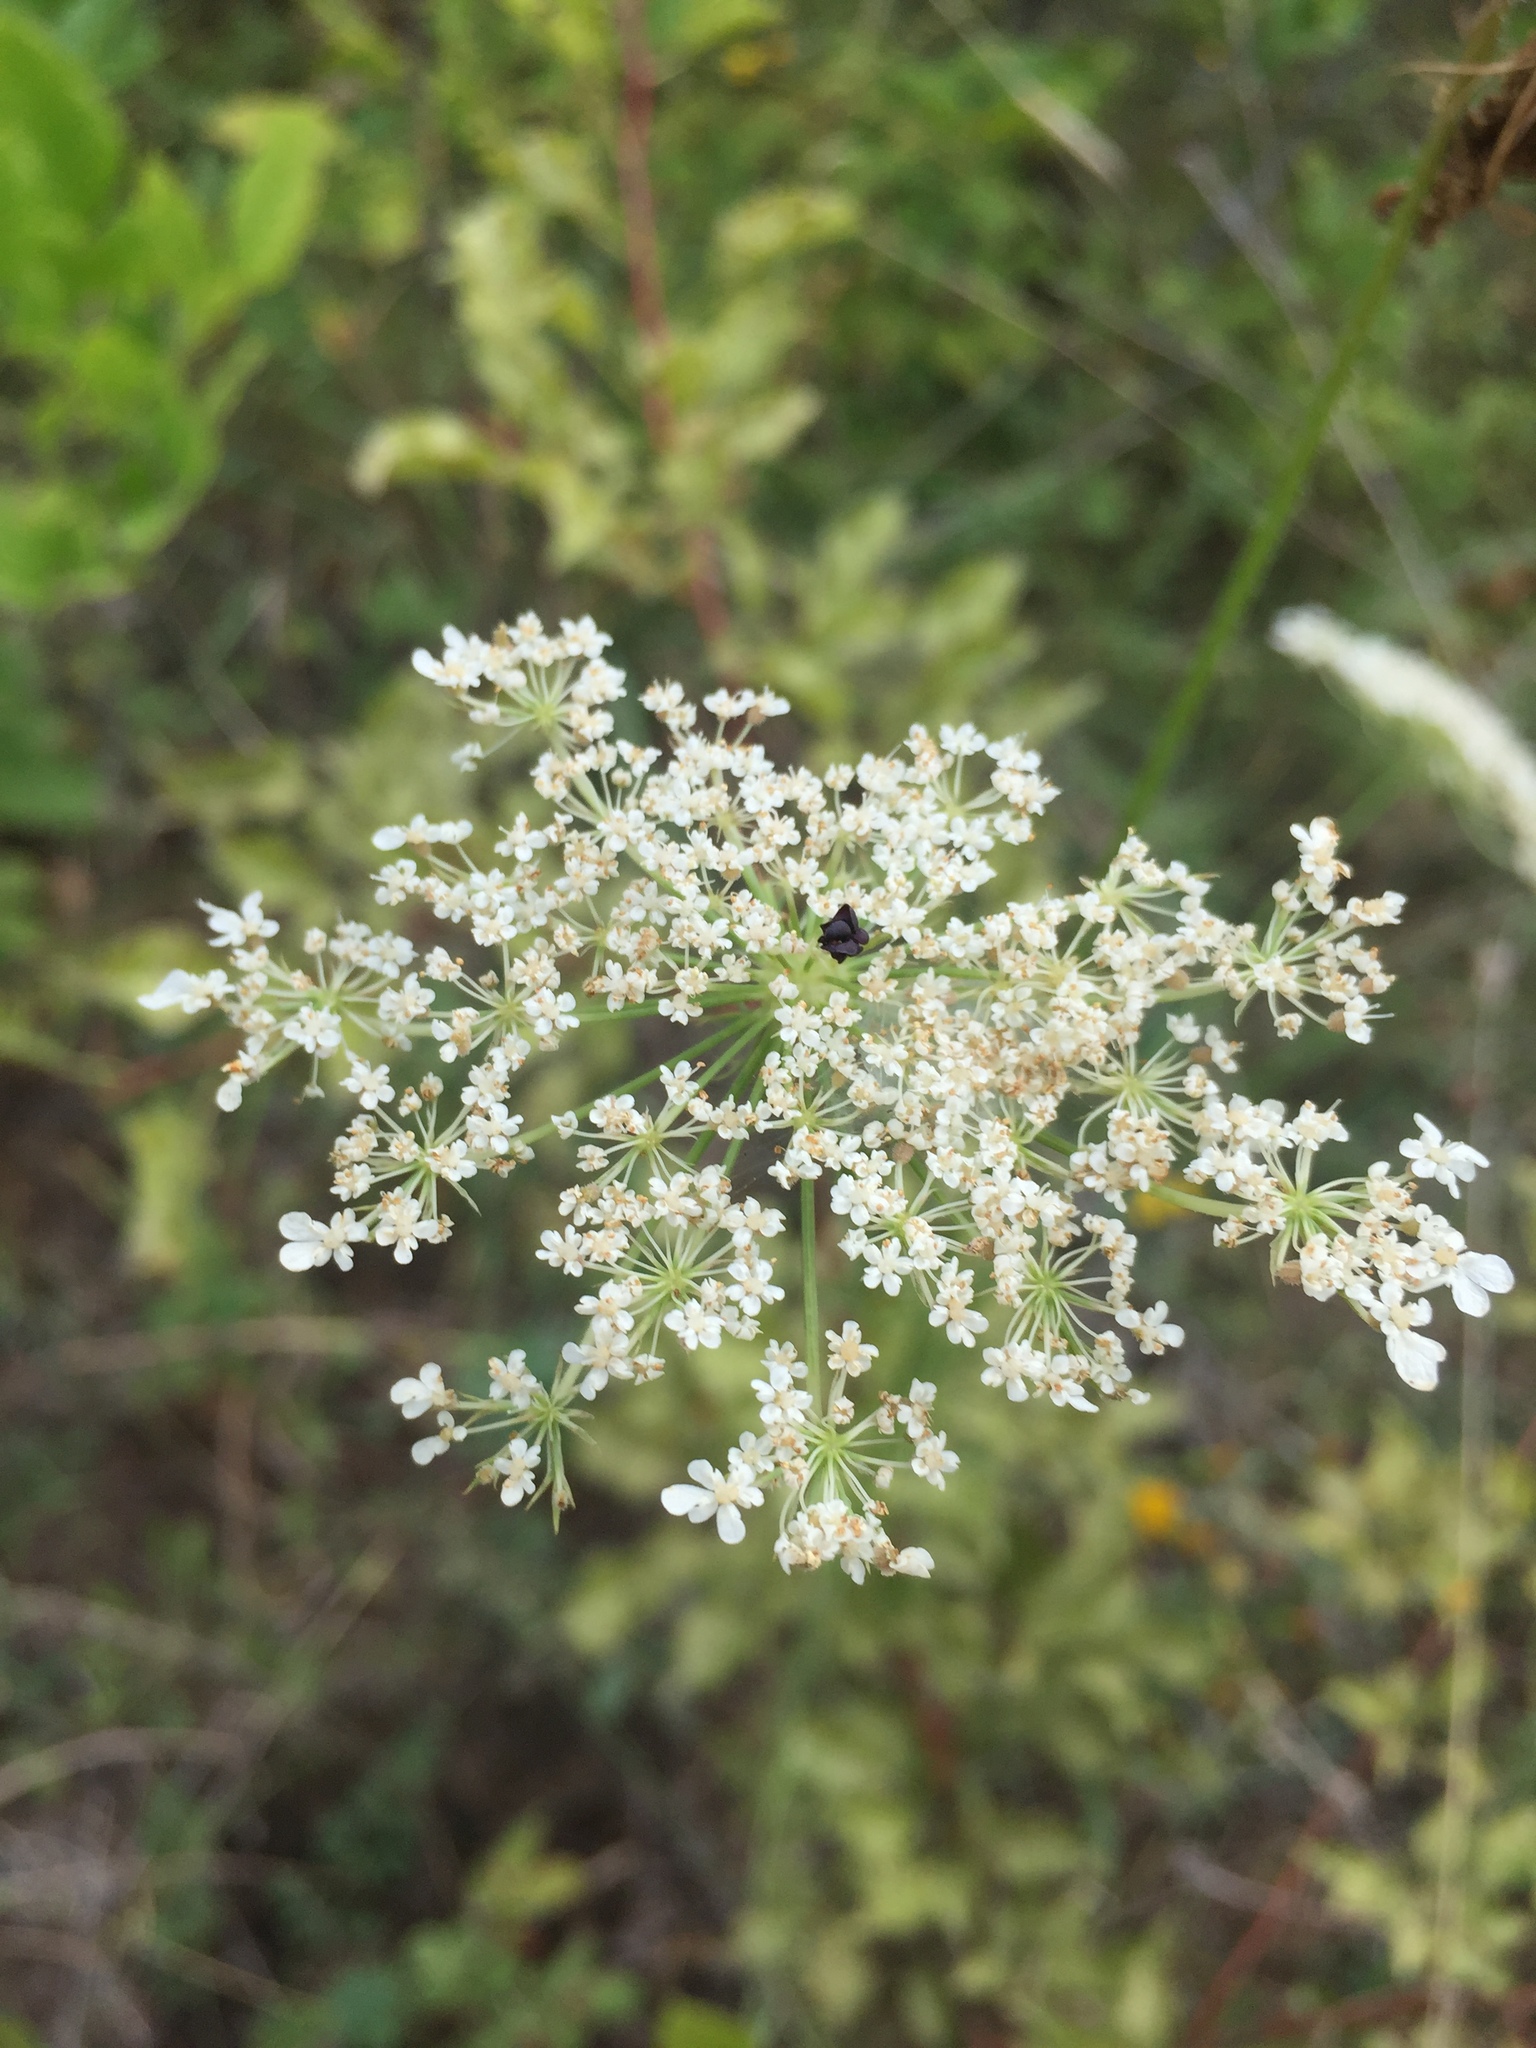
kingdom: Plantae
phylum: Tracheophyta
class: Magnoliopsida
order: Apiales
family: Apiaceae
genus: Daucus
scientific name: Daucus carota
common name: Wild carrot
